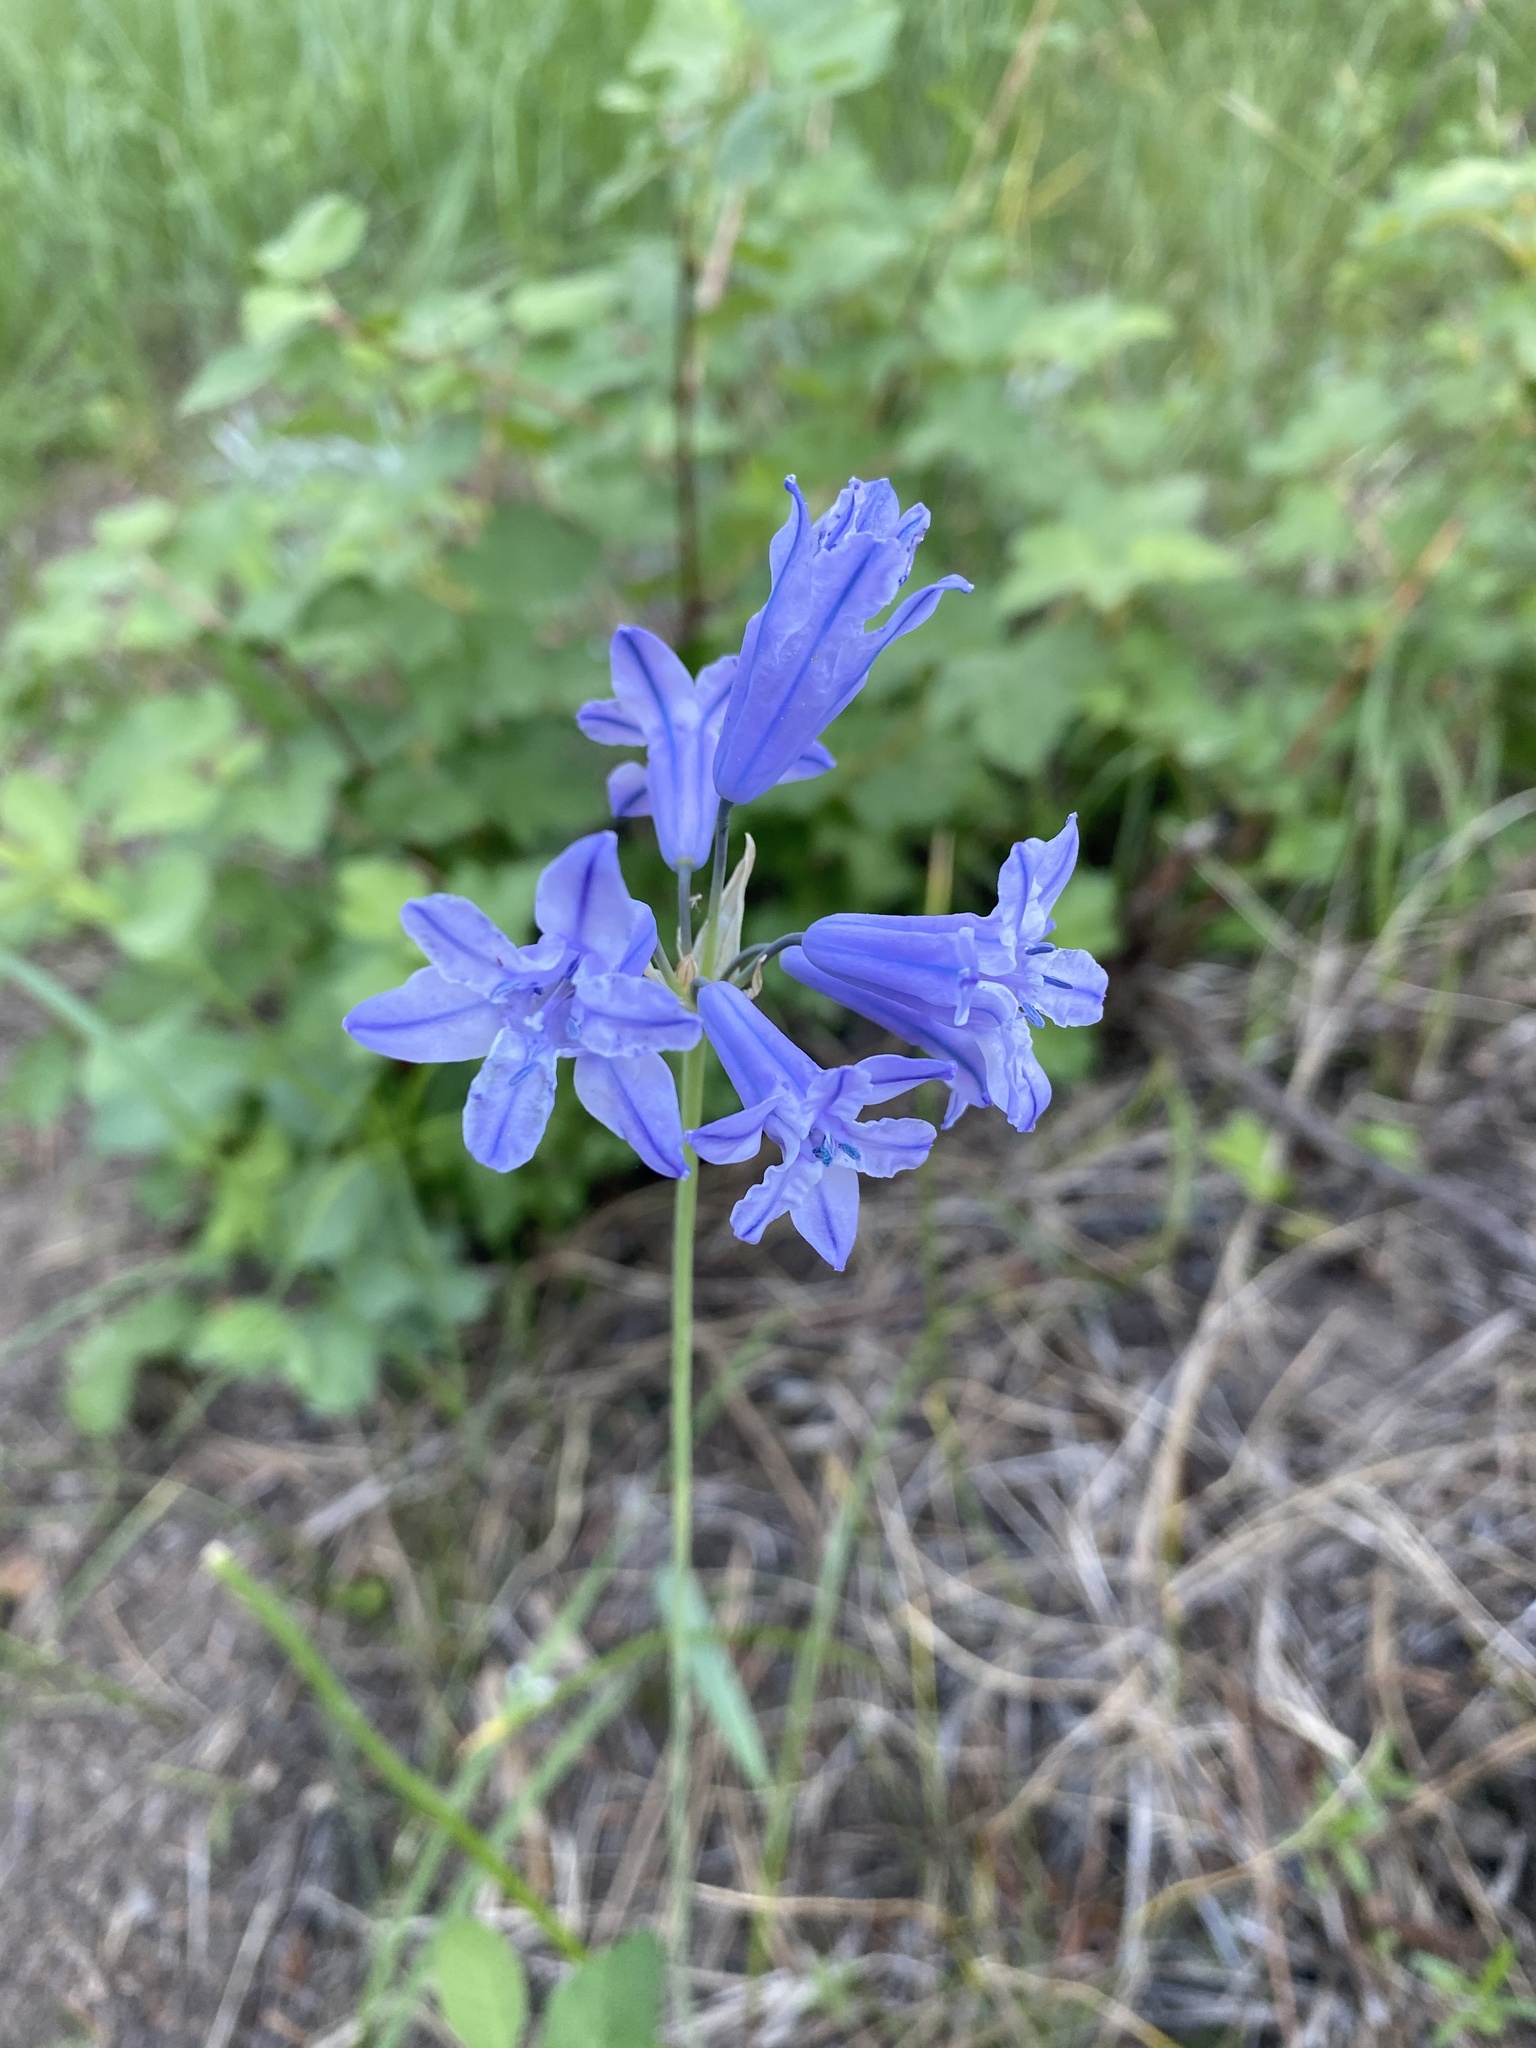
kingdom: Plantae
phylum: Tracheophyta
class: Liliopsida
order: Asparagales
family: Asparagaceae
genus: Triteleia
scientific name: Triteleia grandiflora
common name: Wild hyacinth
